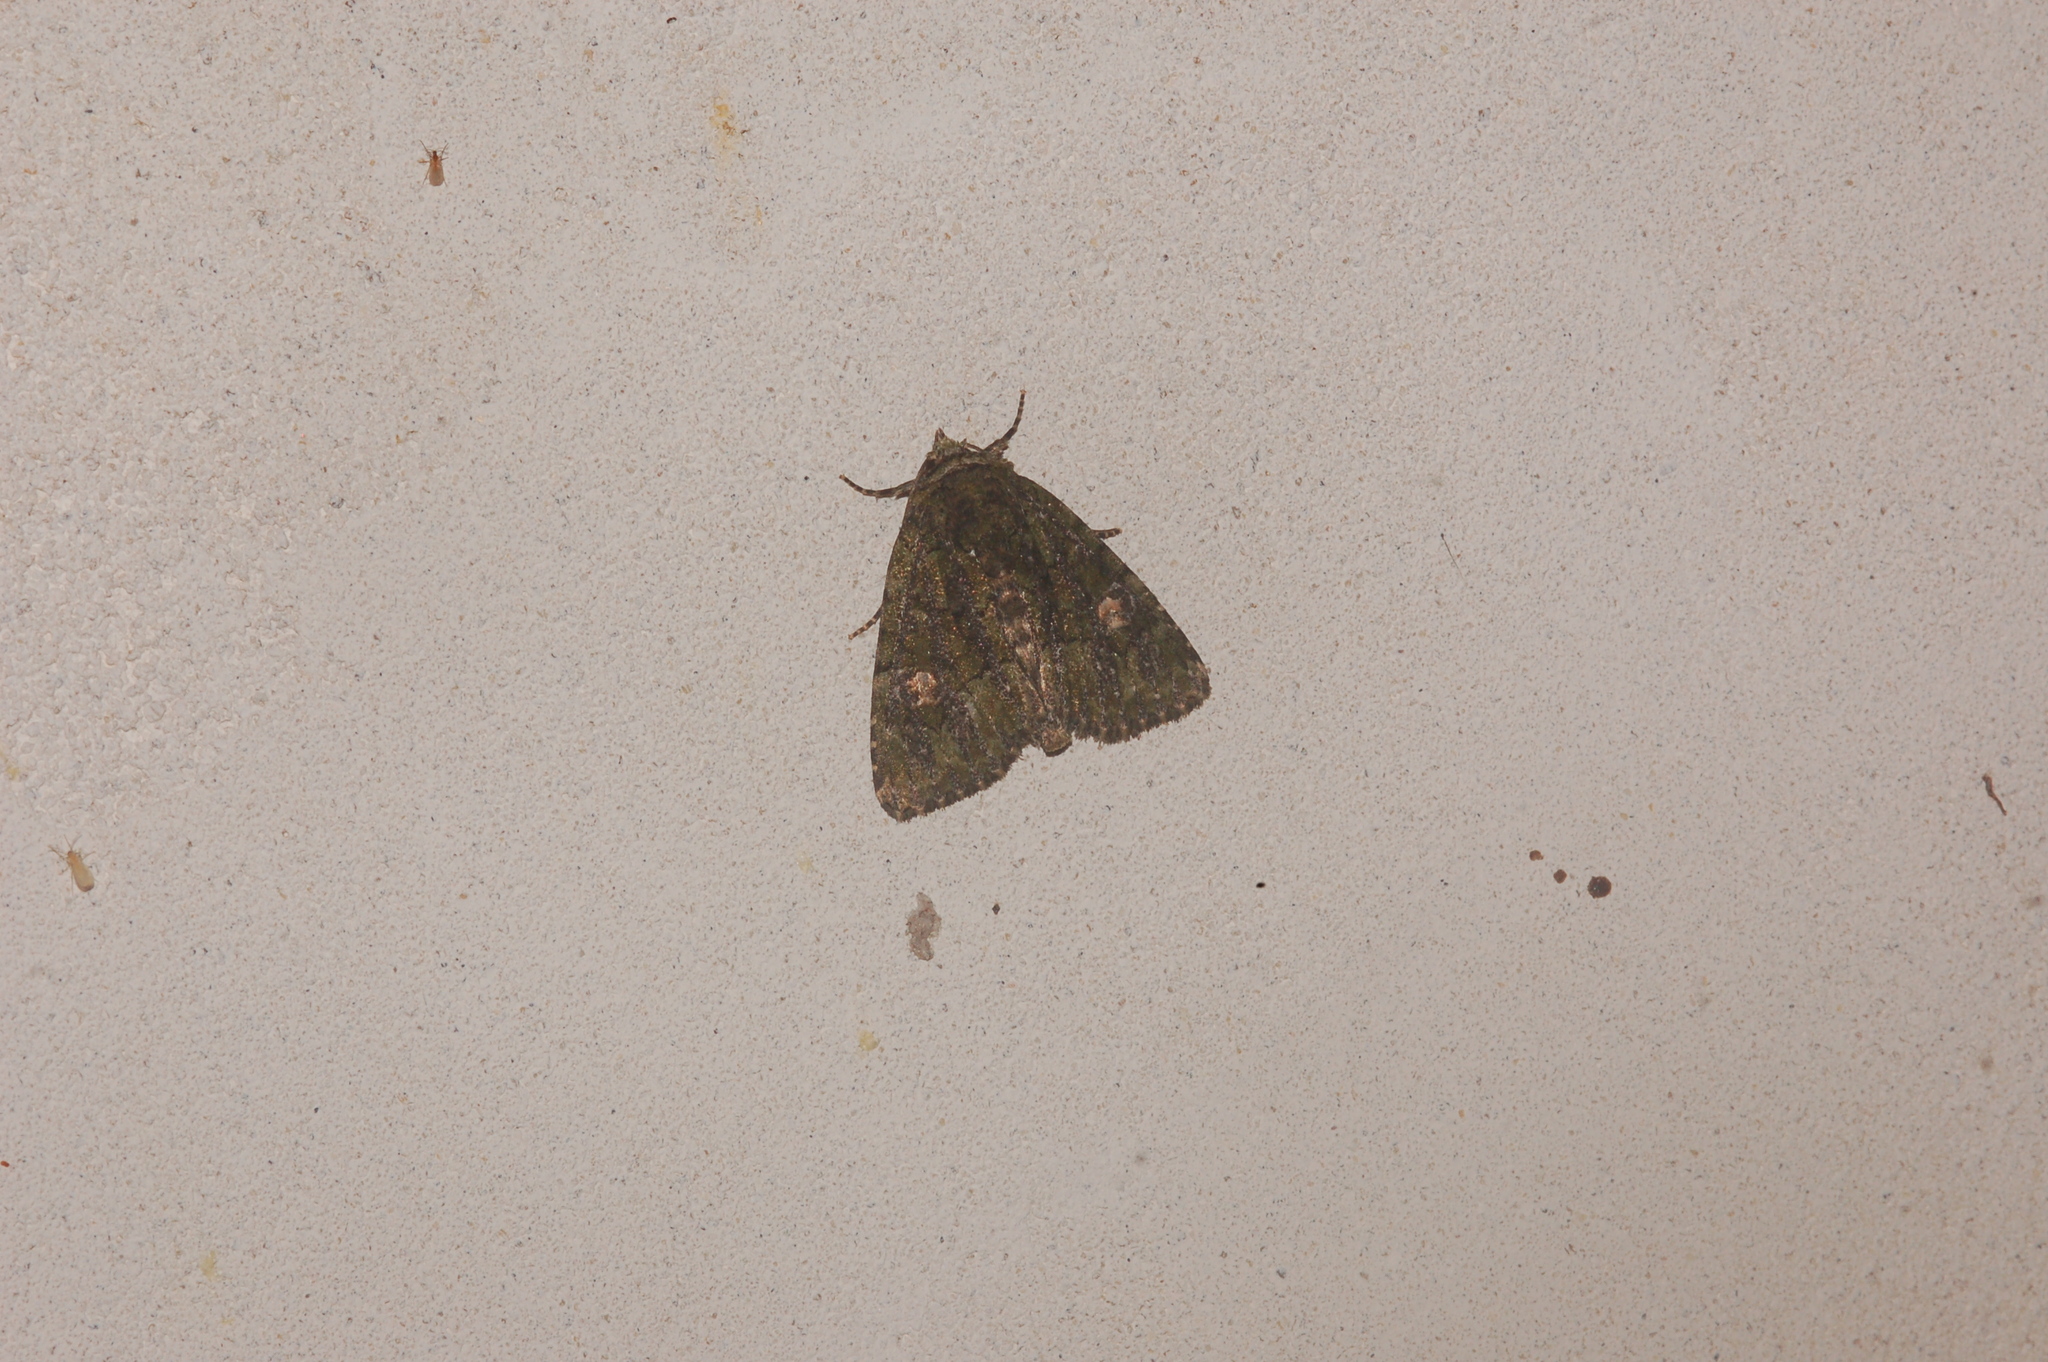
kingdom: Animalia
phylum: Arthropoda
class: Insecta
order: Lepidoptera
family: Noctuidae
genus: Phosphila
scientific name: Phosphila miselioides
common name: Spotted phosphila moth
